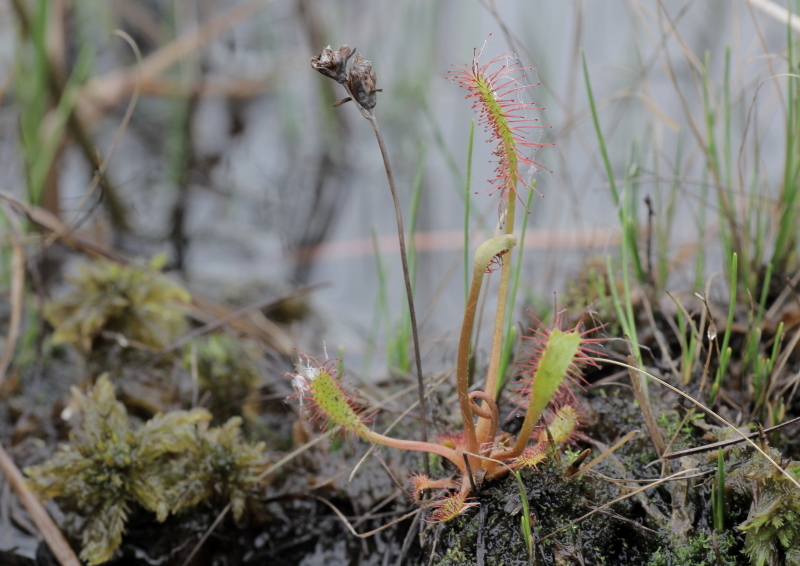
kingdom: Plantae
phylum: Tracheophyta
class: Magnoliopsida
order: Caryophyllales
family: Droseraceae
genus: Drosera
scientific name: Drosera anglica
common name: Great sundew
